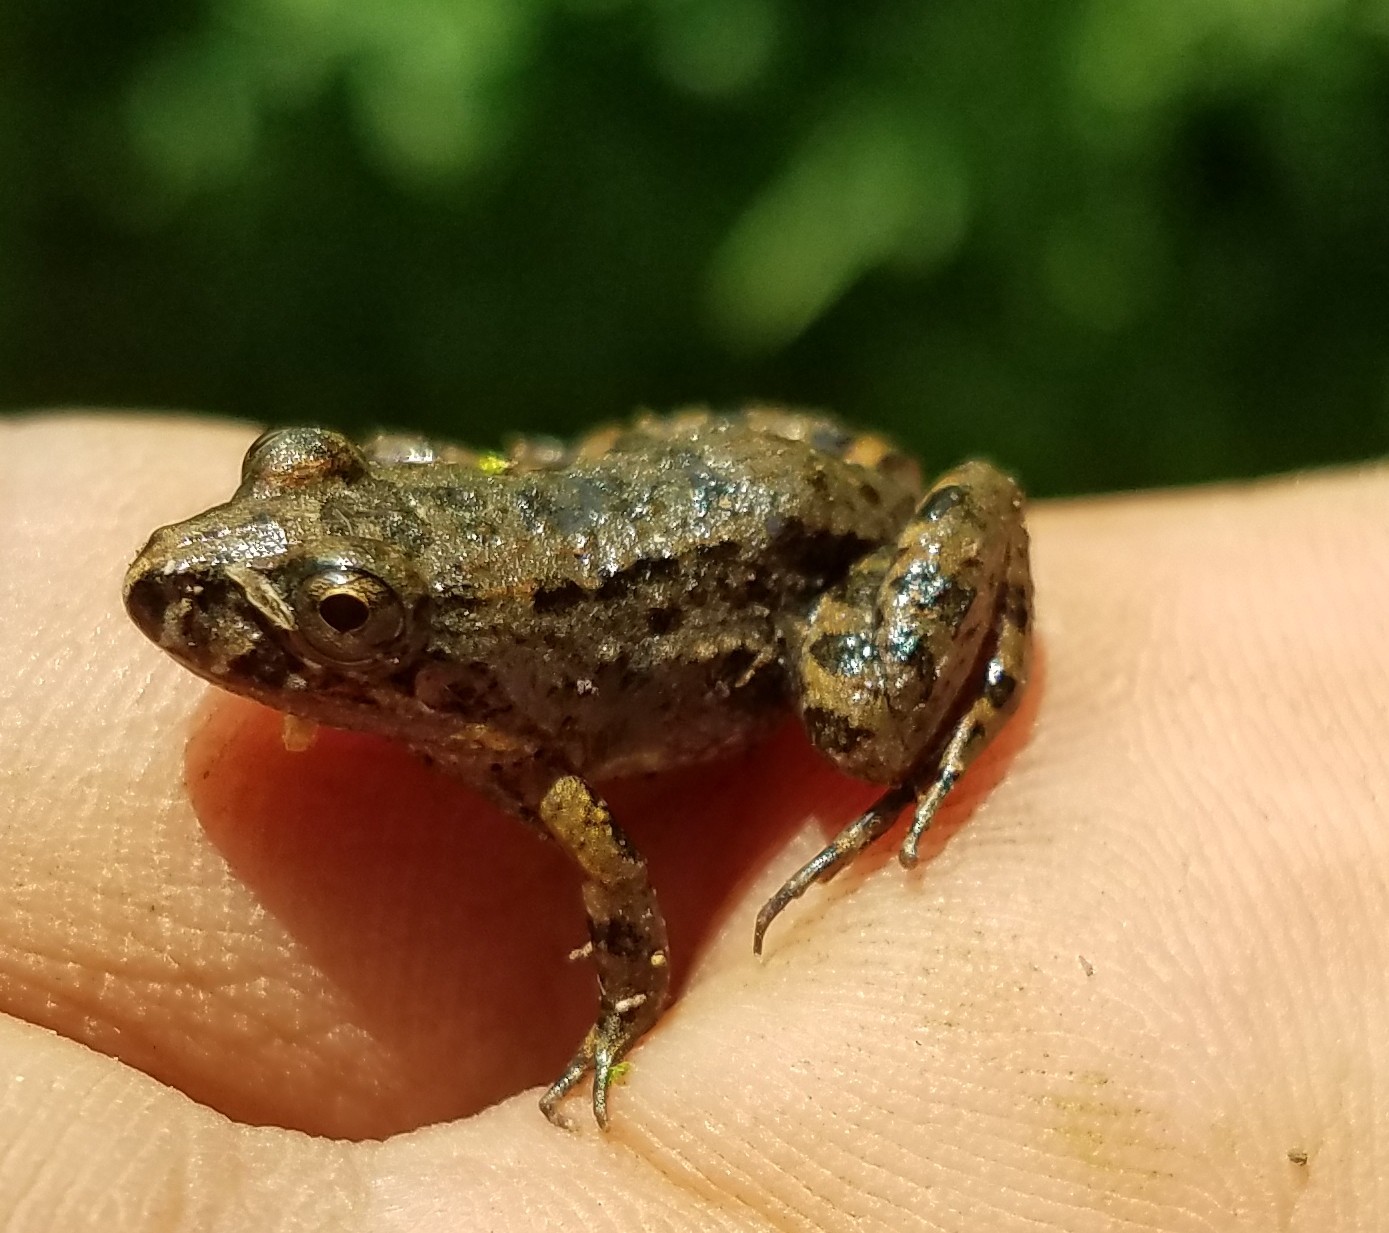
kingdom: Animalia
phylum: Chordata
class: Amphibia
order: Anura
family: Leptodactylidae
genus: Leptodactylus
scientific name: Leptodactylus melanonotus
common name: Fringe-toed foamfrog
